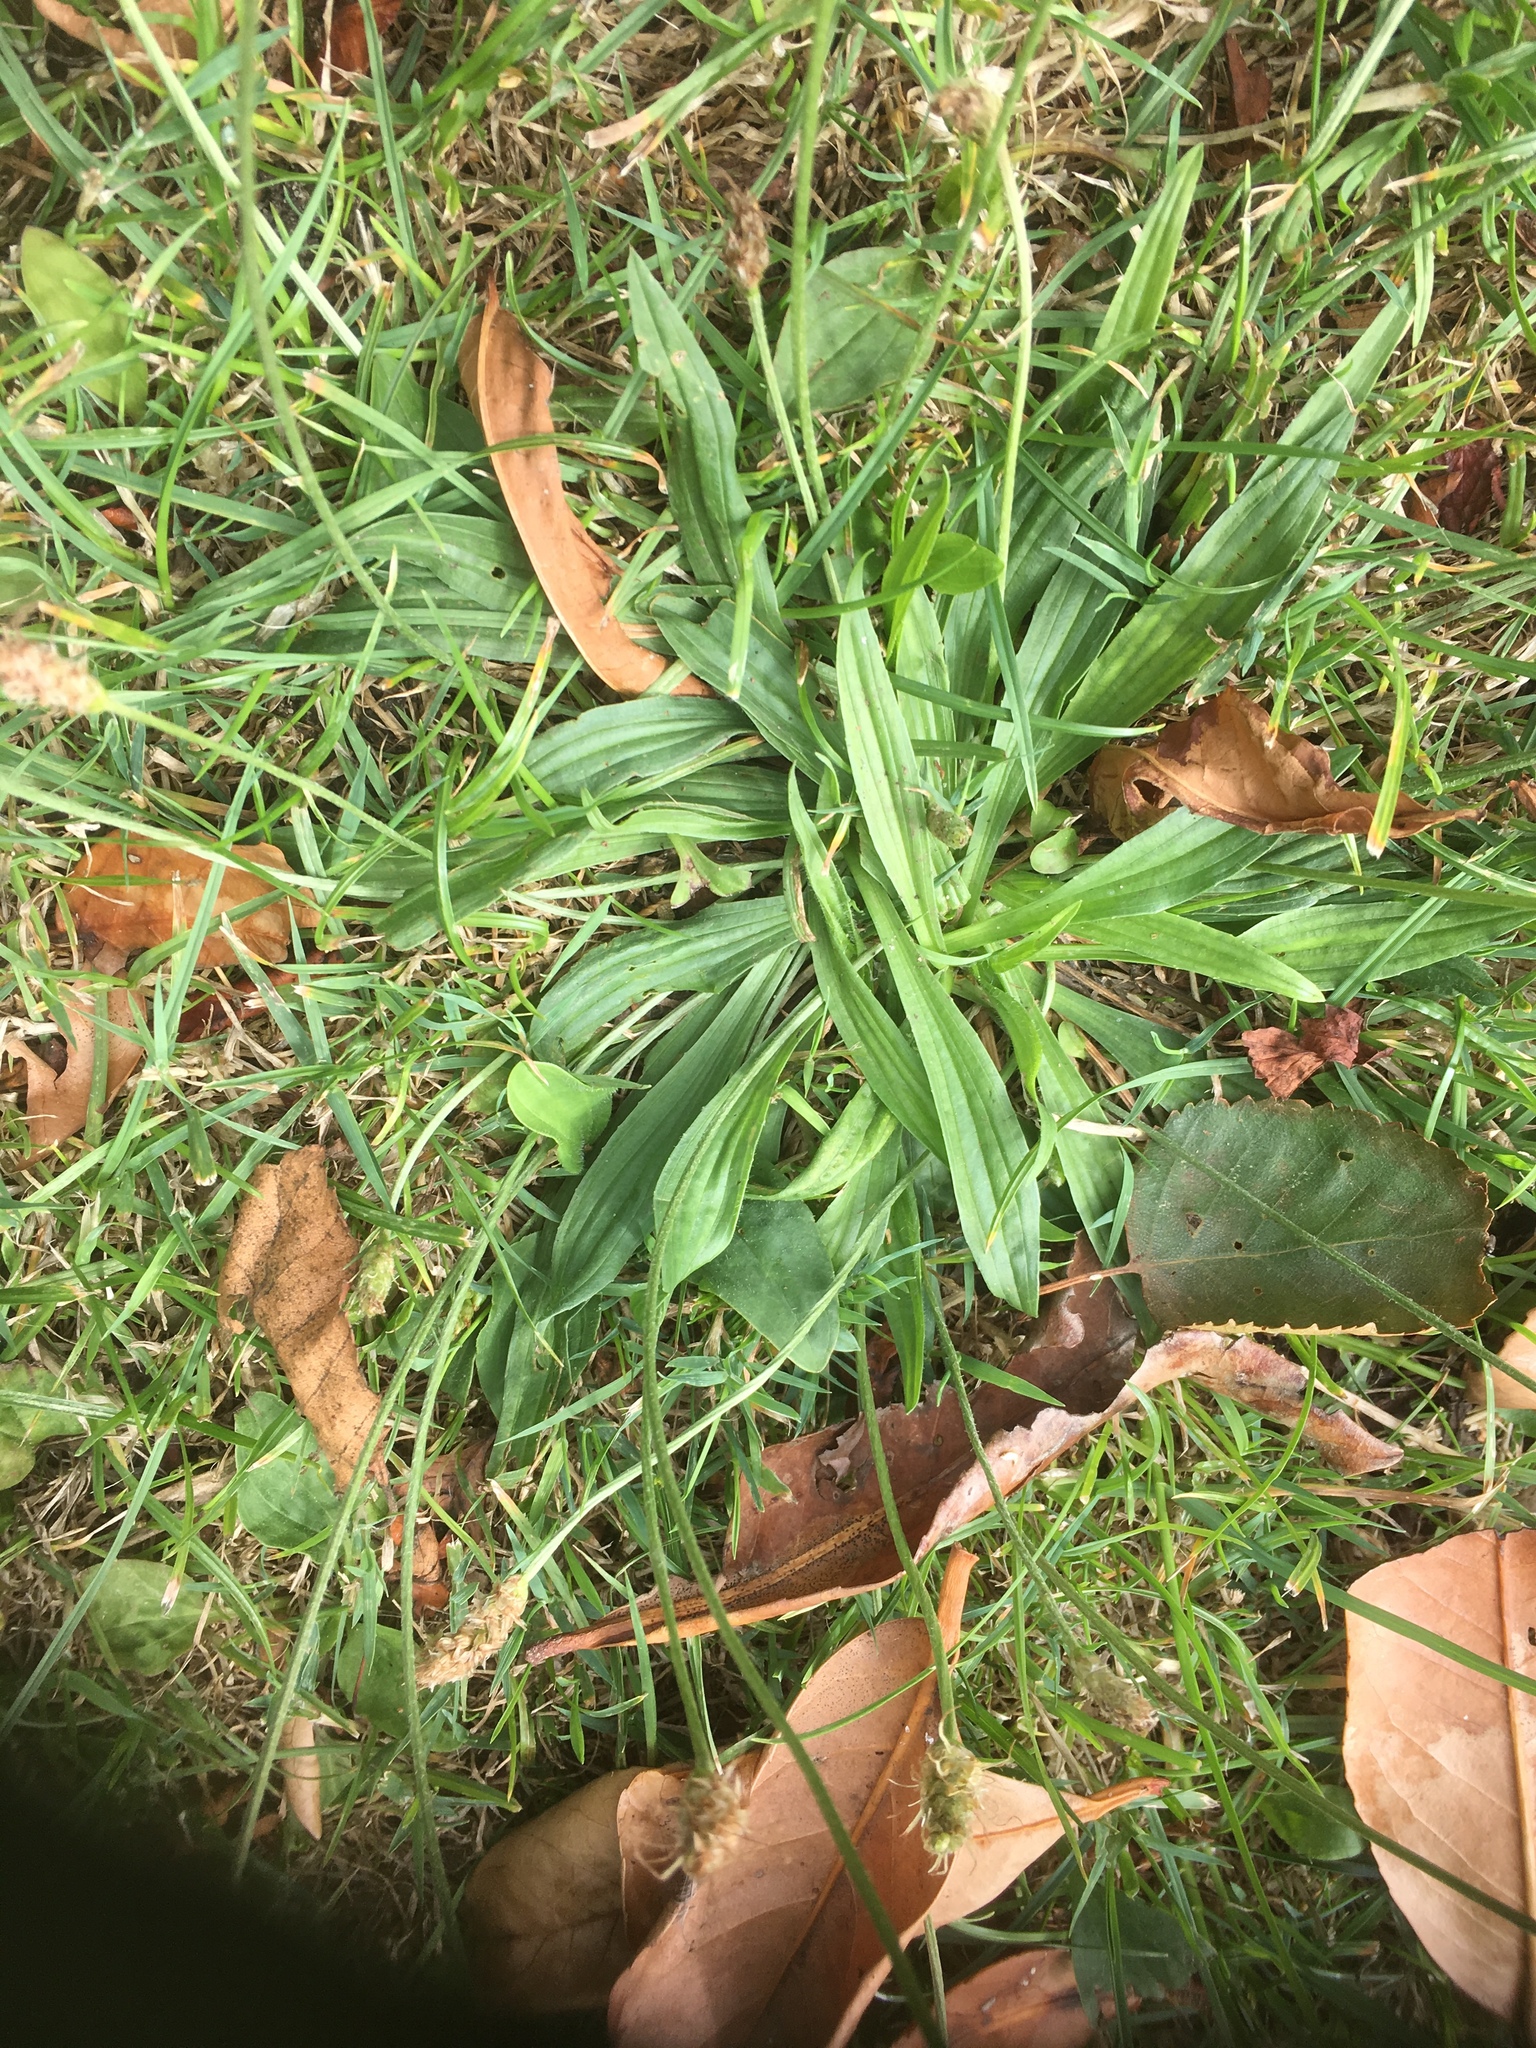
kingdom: Plantae
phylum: Tracheophyta
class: Magnoliopsida
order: Lamiales
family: Plantaginaceae
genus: Plantago
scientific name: Plantago lanceolata
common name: Ribwort plantain
